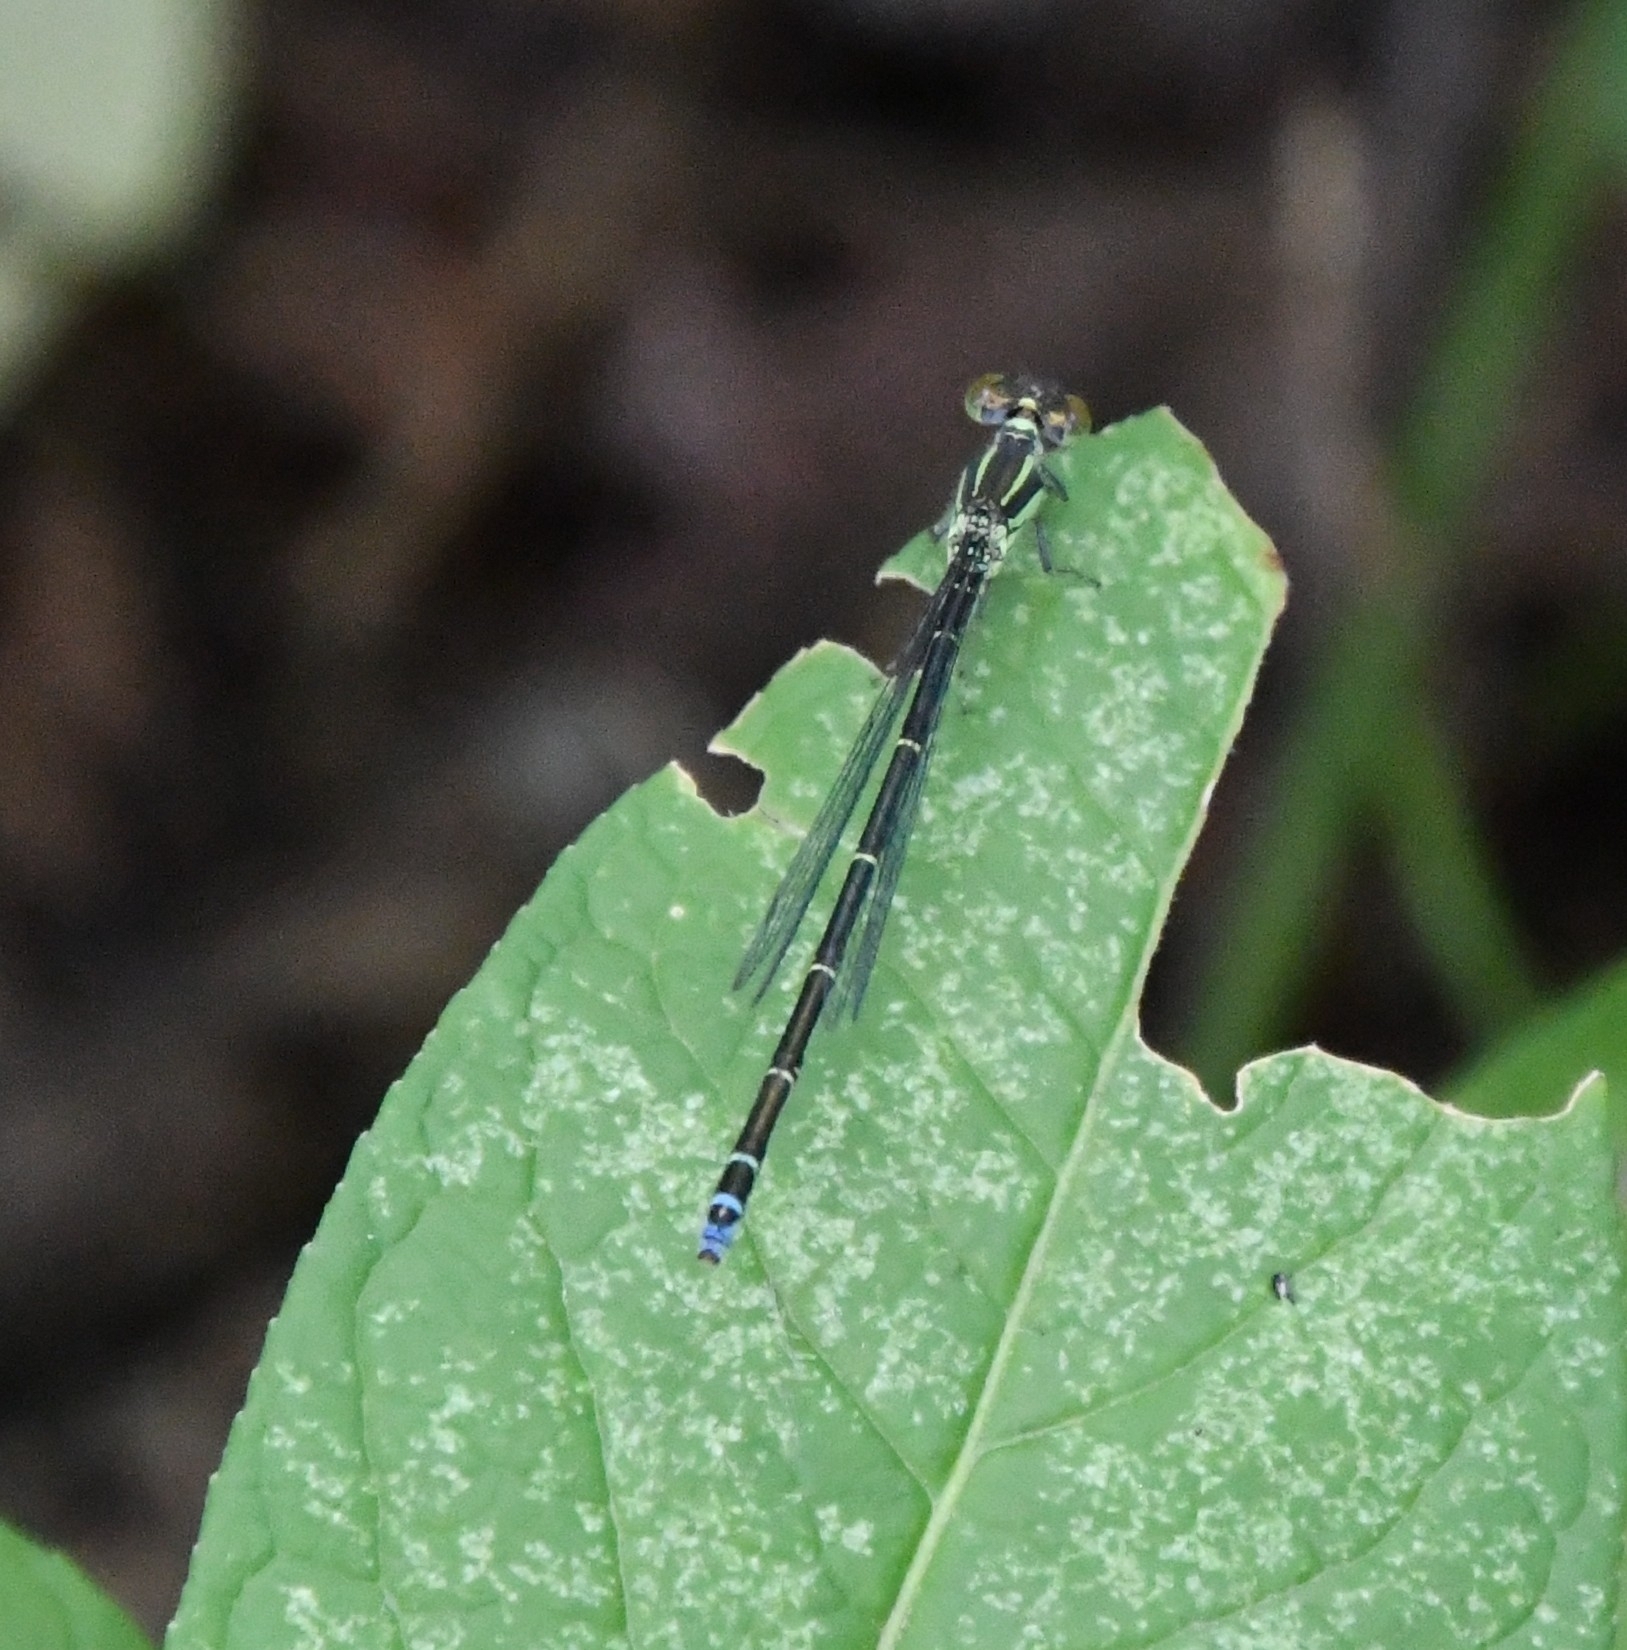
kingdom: Animalia
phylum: Arthropoda
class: Insecta
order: Odonata
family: Coenagrionidae
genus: Erythromma
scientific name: Erythromma viridulum
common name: Small red-eyed damselfly
